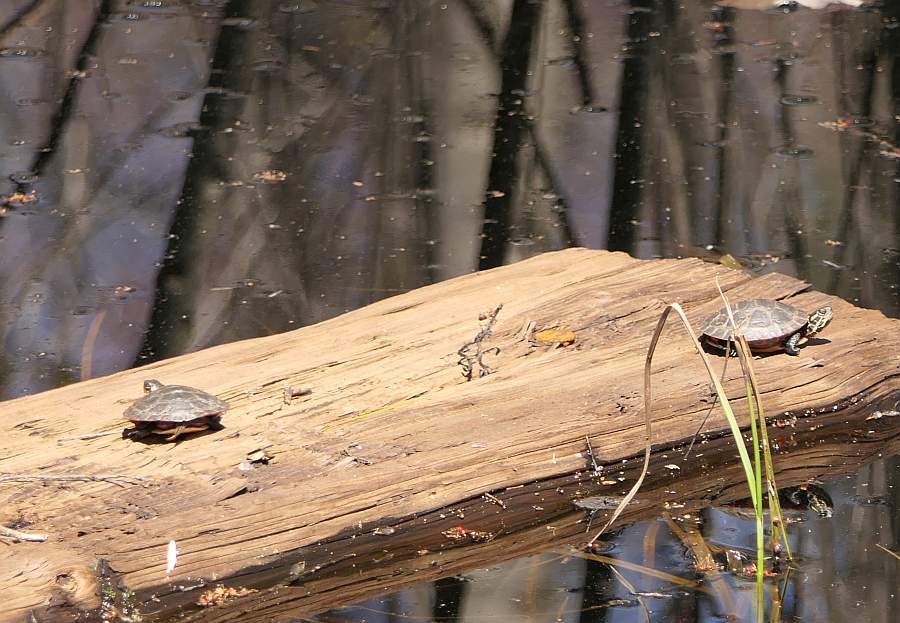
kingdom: Animalia
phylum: Chordata
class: Testudines
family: Emydidae
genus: Chrysemys
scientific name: Chrysemys picta
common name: Painted turtle
